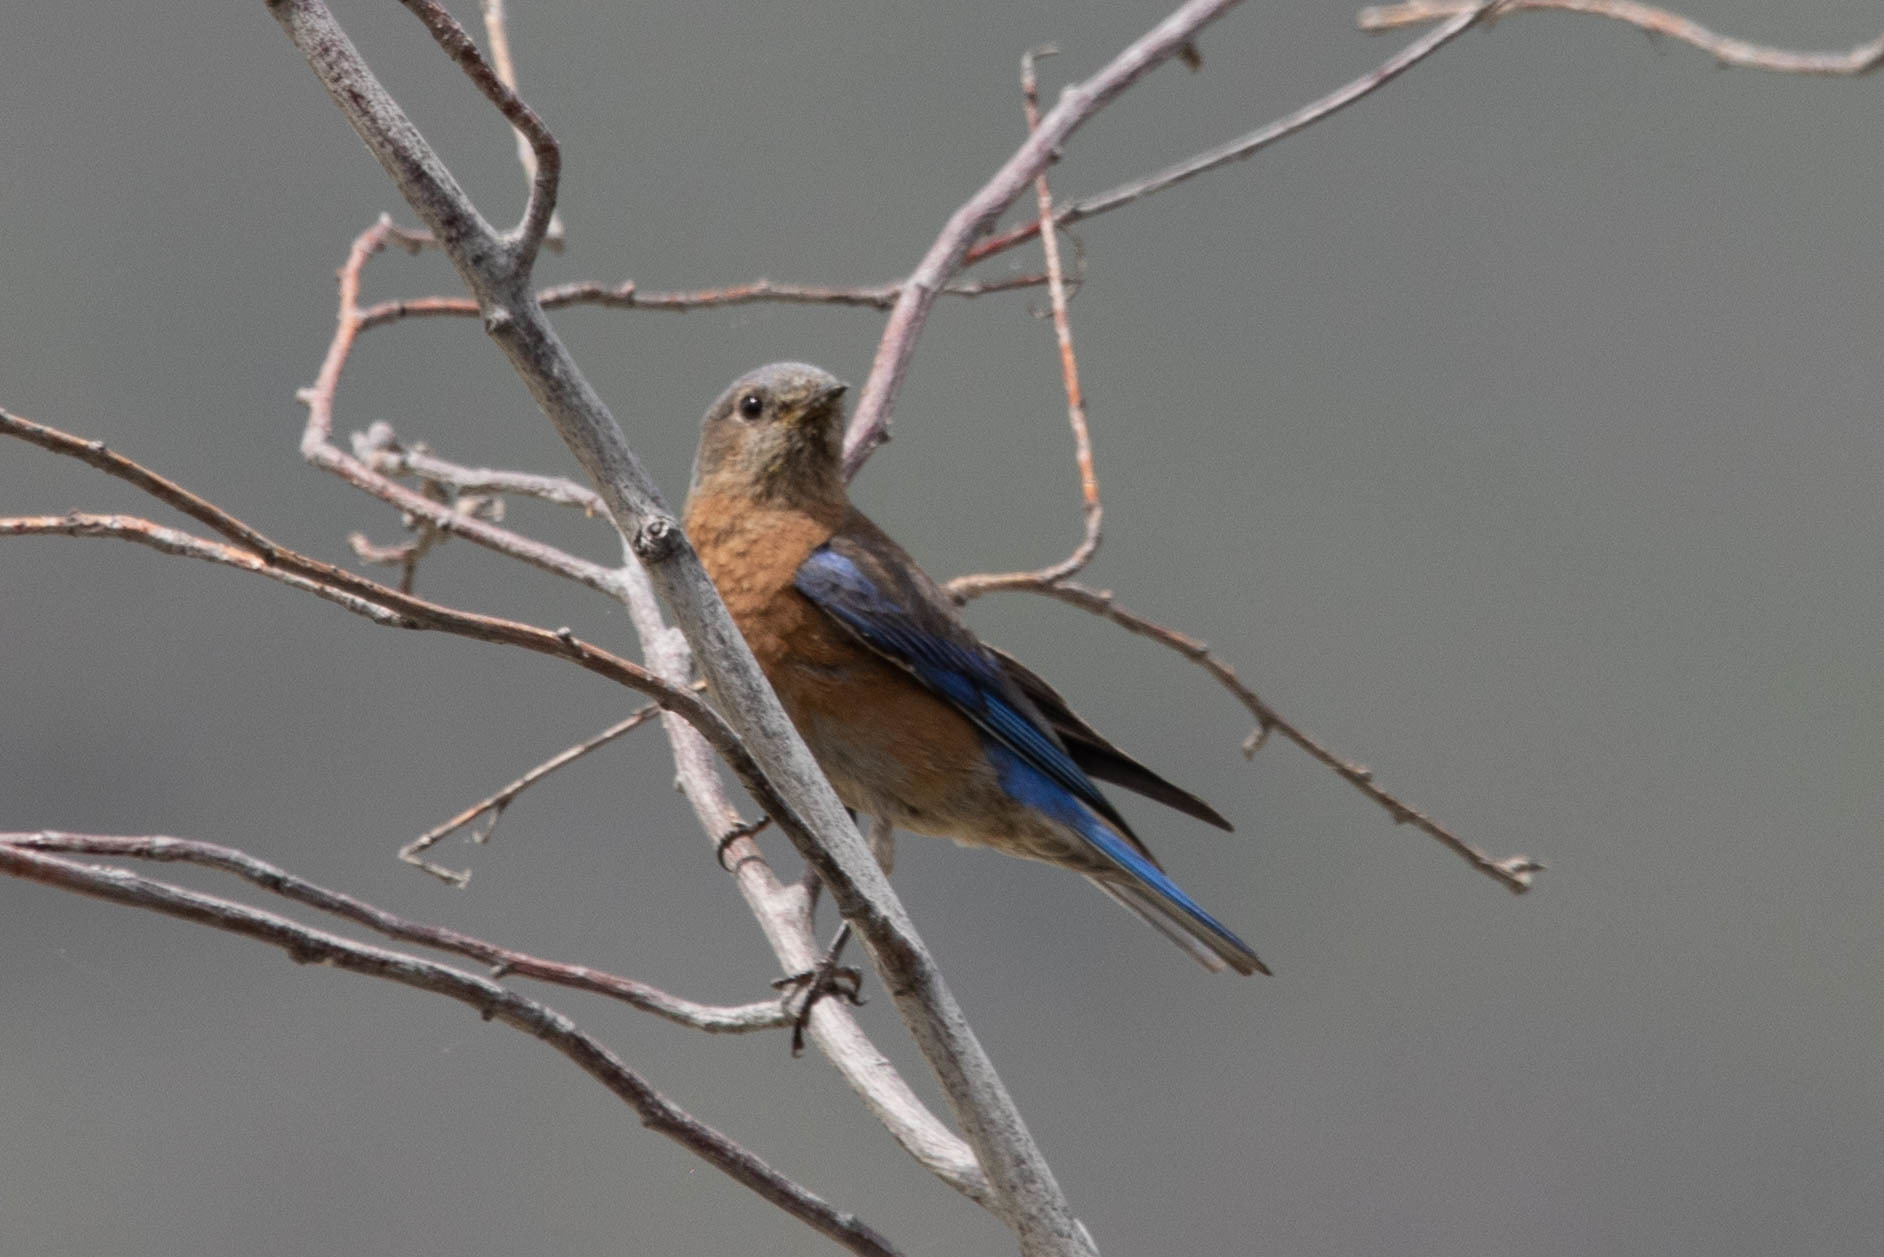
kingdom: Animalia
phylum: Chordata
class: Aves
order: Passeriformes
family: Turdidae
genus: Sialia
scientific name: Sialia mexicana
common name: Western bluebird
